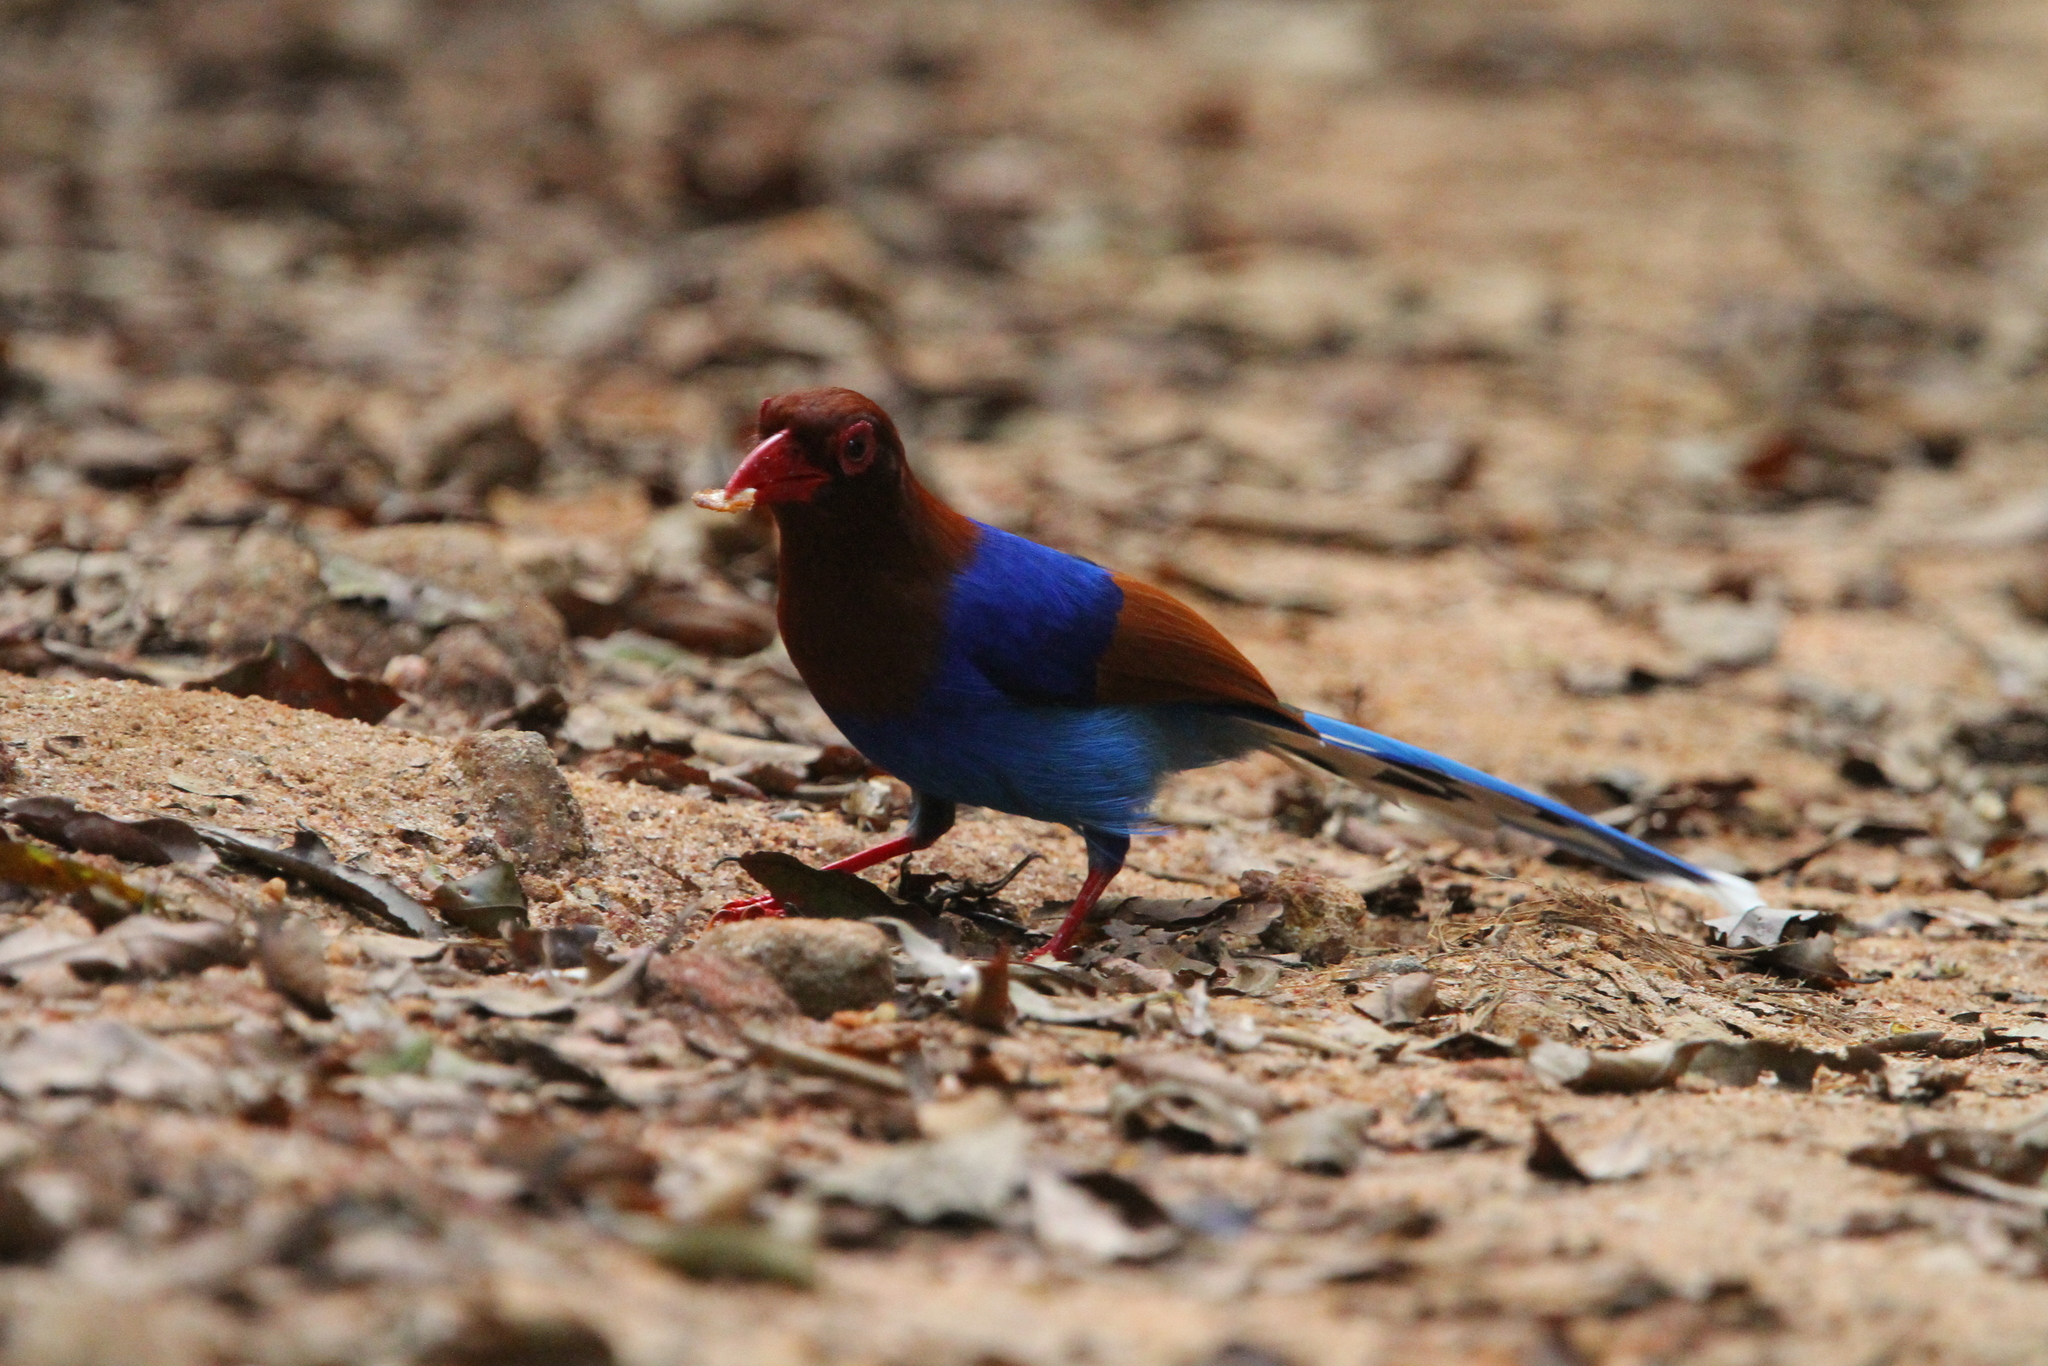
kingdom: Animalia
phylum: Chordata
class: Aves
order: Passeriformes
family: Corvidae
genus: Urocissa
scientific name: Urocissa ornata
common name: Sri lanka blue magpie
